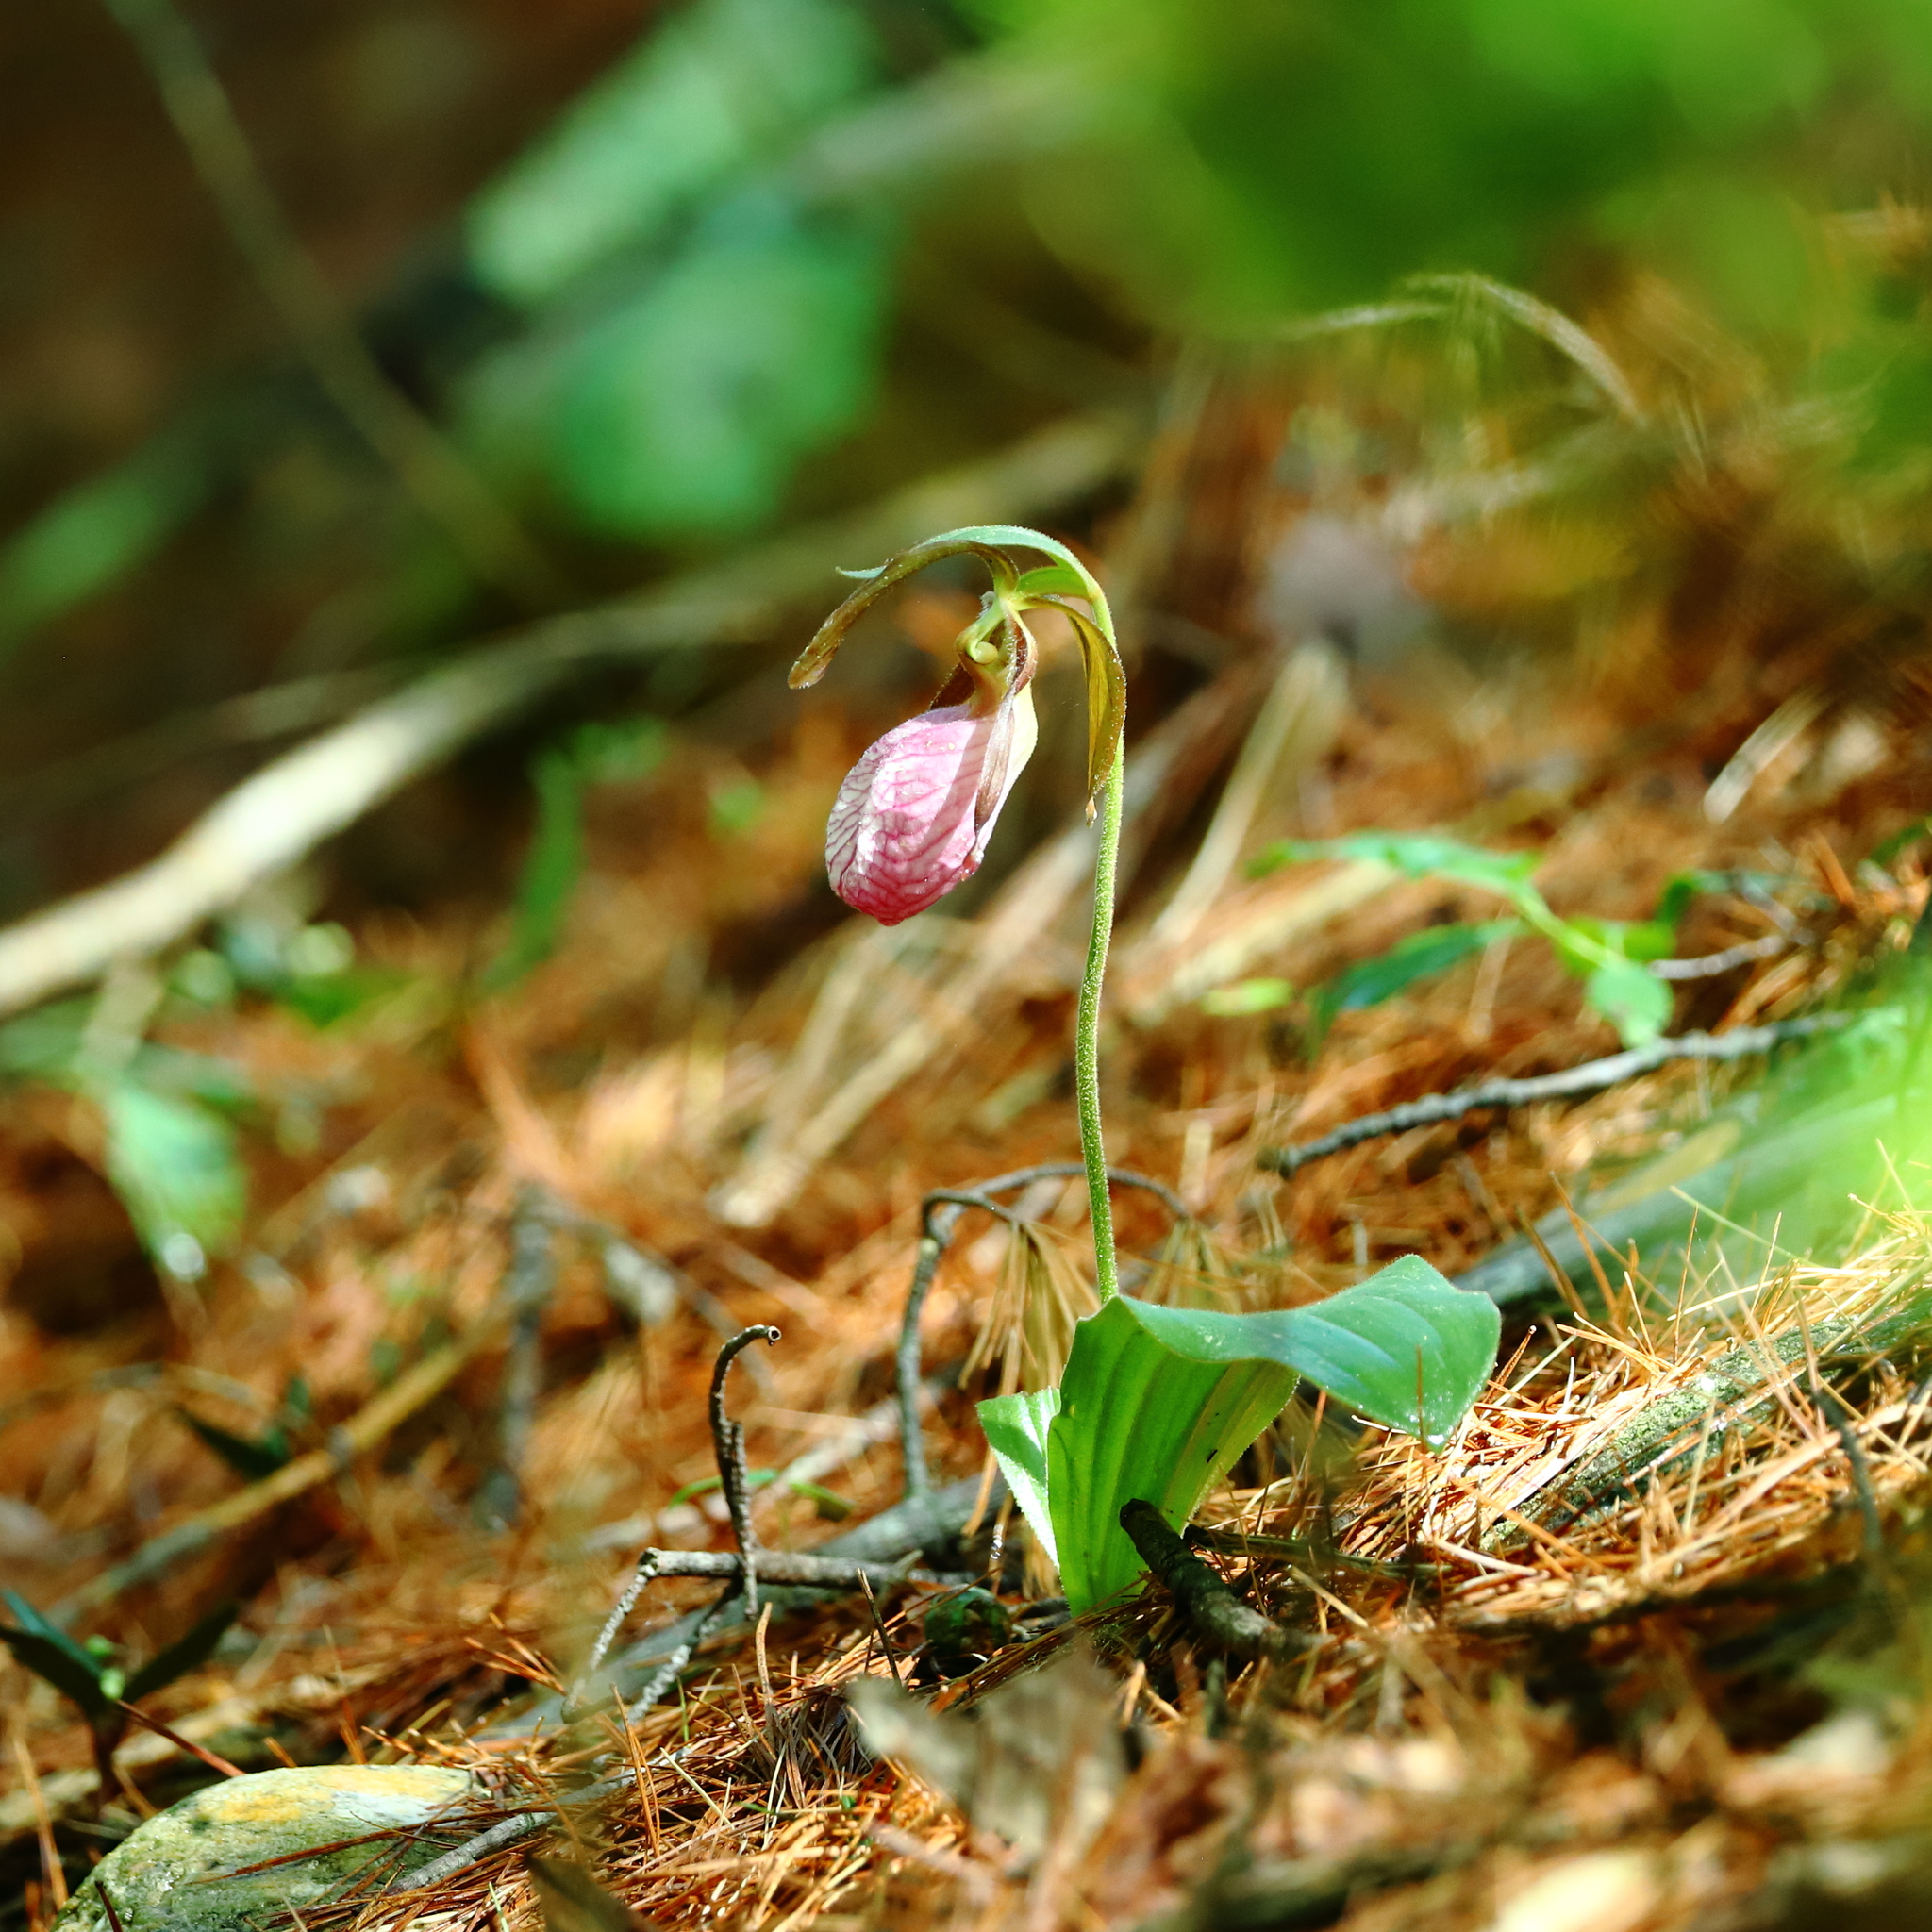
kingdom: Plantae
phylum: Tracheophyta
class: Liliopsida
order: Asparagales
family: Orchidaceae
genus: Cypripedium
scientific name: Cypripedium acaule
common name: Pink lady's-slipper
